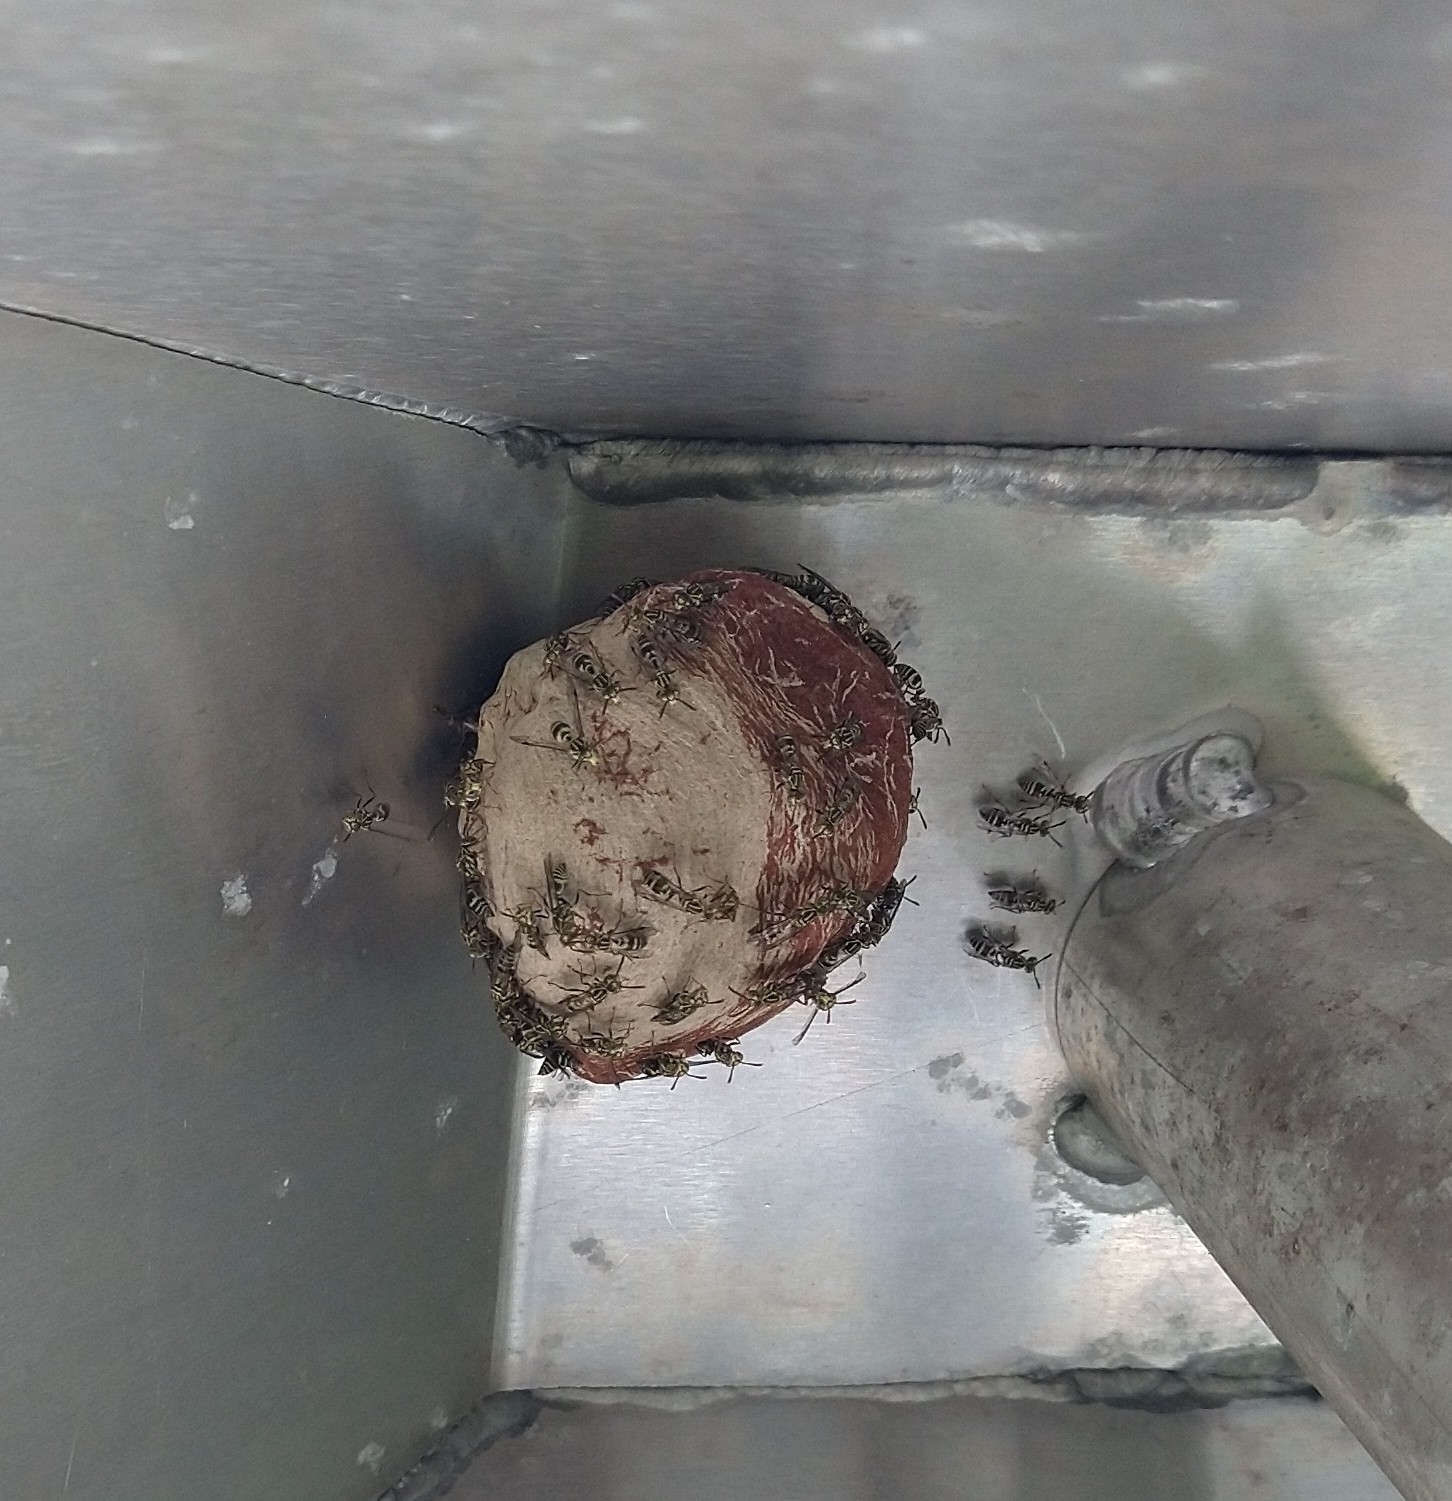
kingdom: Animalia
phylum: Arthropoda
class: Insecta
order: Hymenoptera
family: Vespidae
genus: Protopolybia
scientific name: Protopolybia exigua
